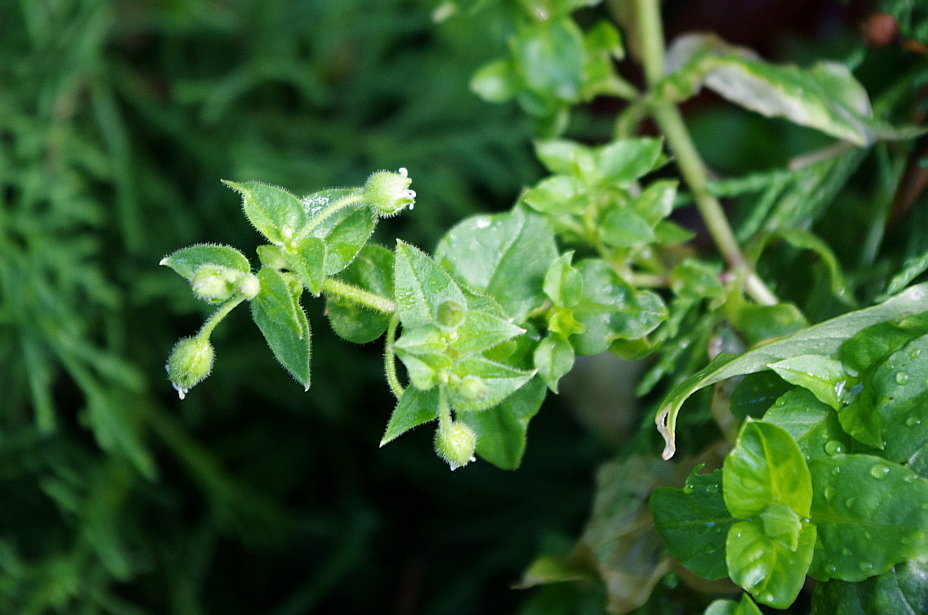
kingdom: Plantae
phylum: Tracheophyta
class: Magnoliopsida
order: Caryophyllales
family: Caryophyllaceae
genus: Stellaria
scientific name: Stellaria aquatica
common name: Water chickweed
